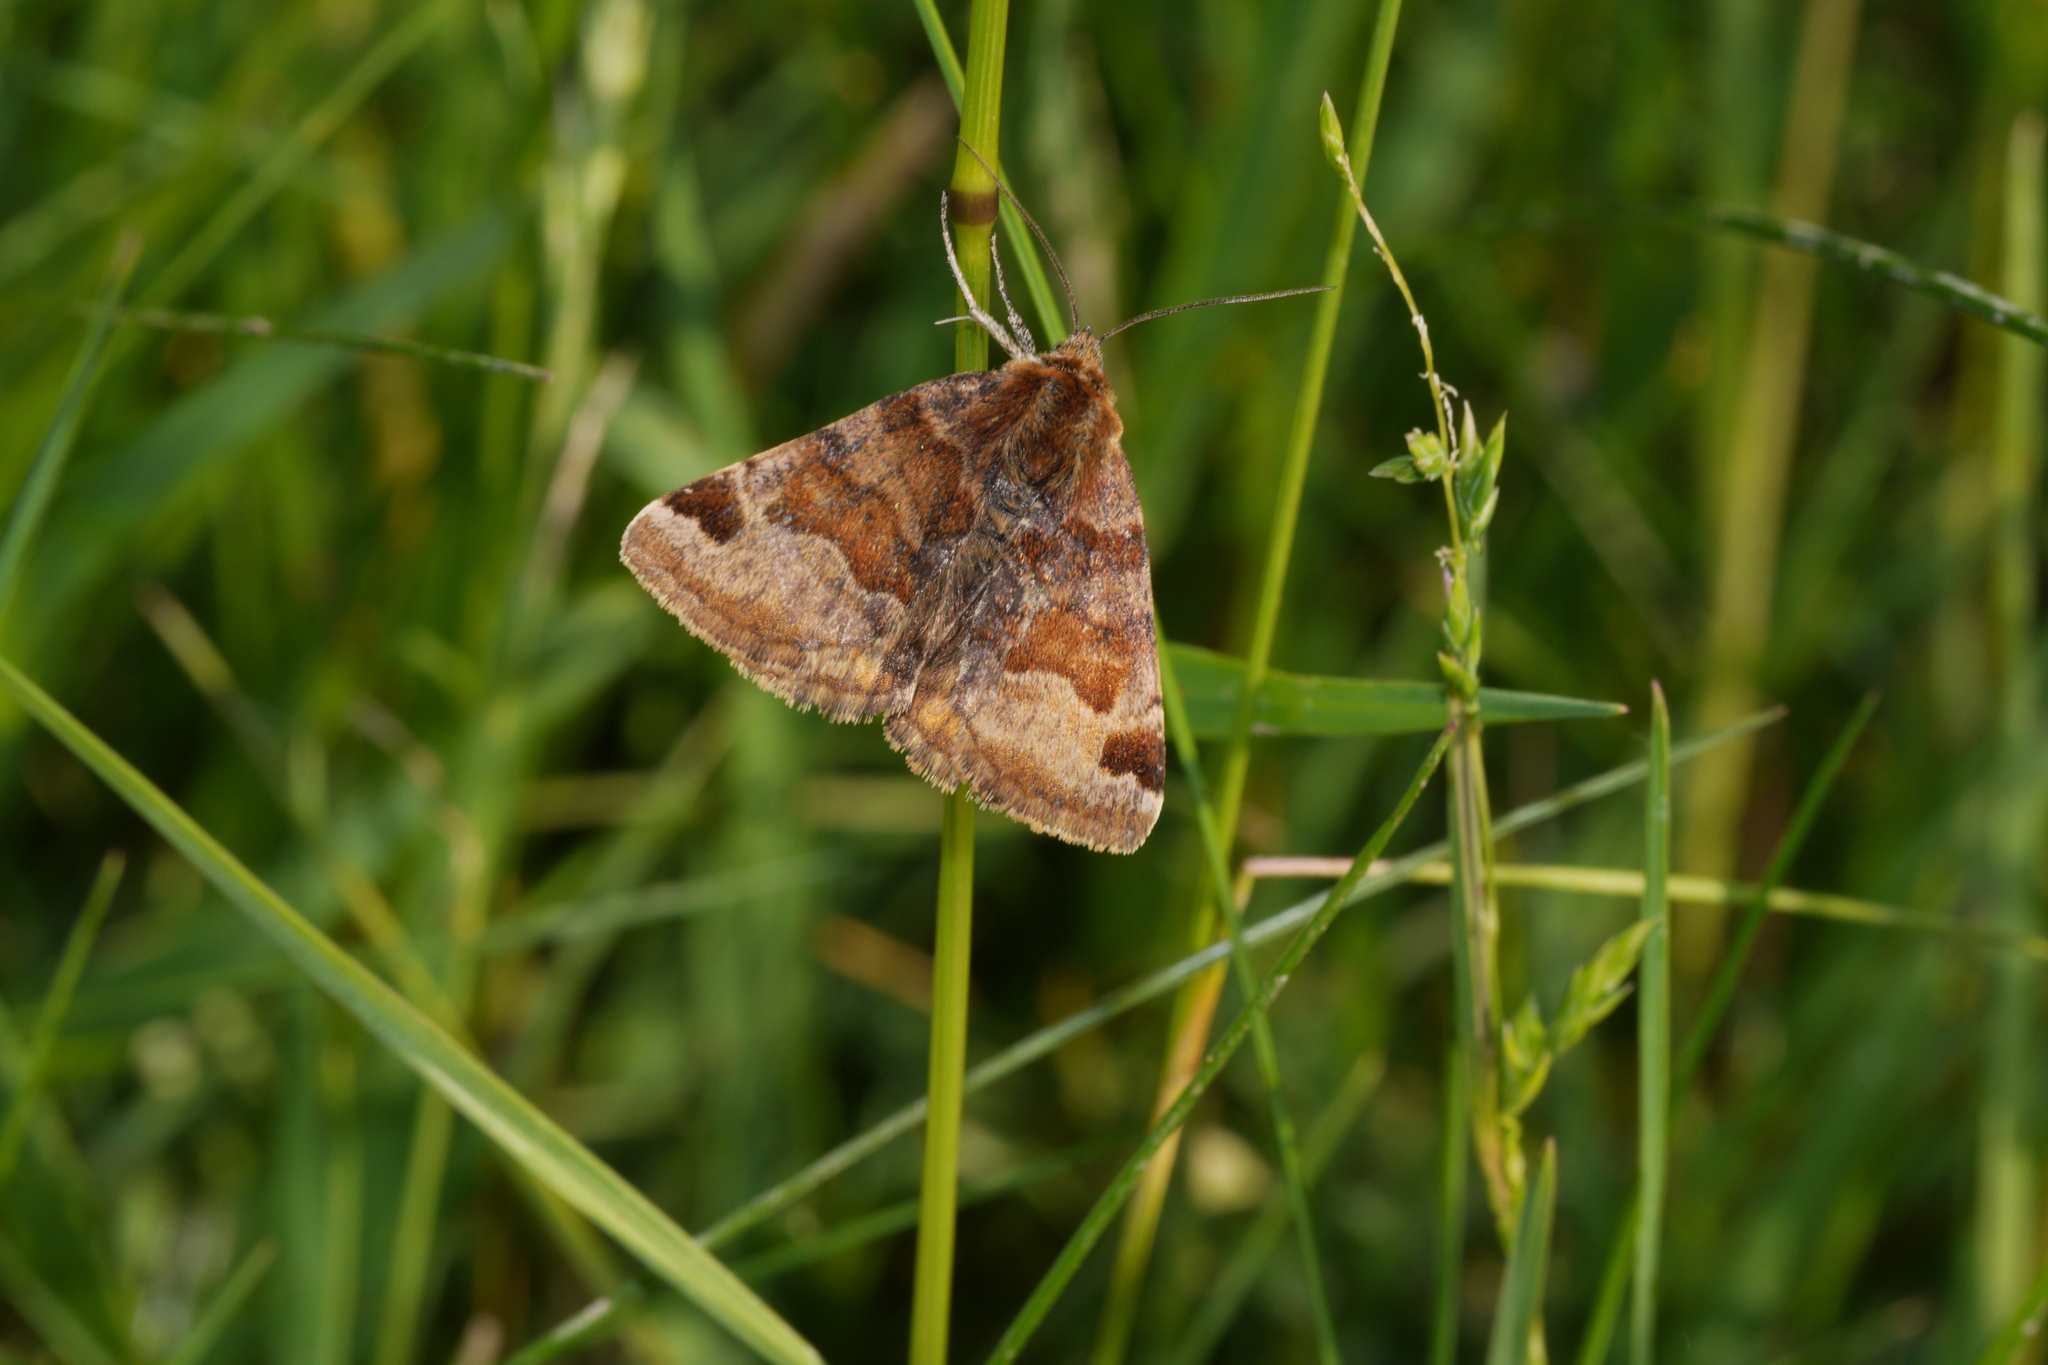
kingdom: Animalia
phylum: Arthropoda
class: Insecta
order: Lepidoptera
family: Erebidae
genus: Euclidia
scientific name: Euclidia glyphica
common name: Burnet companion
